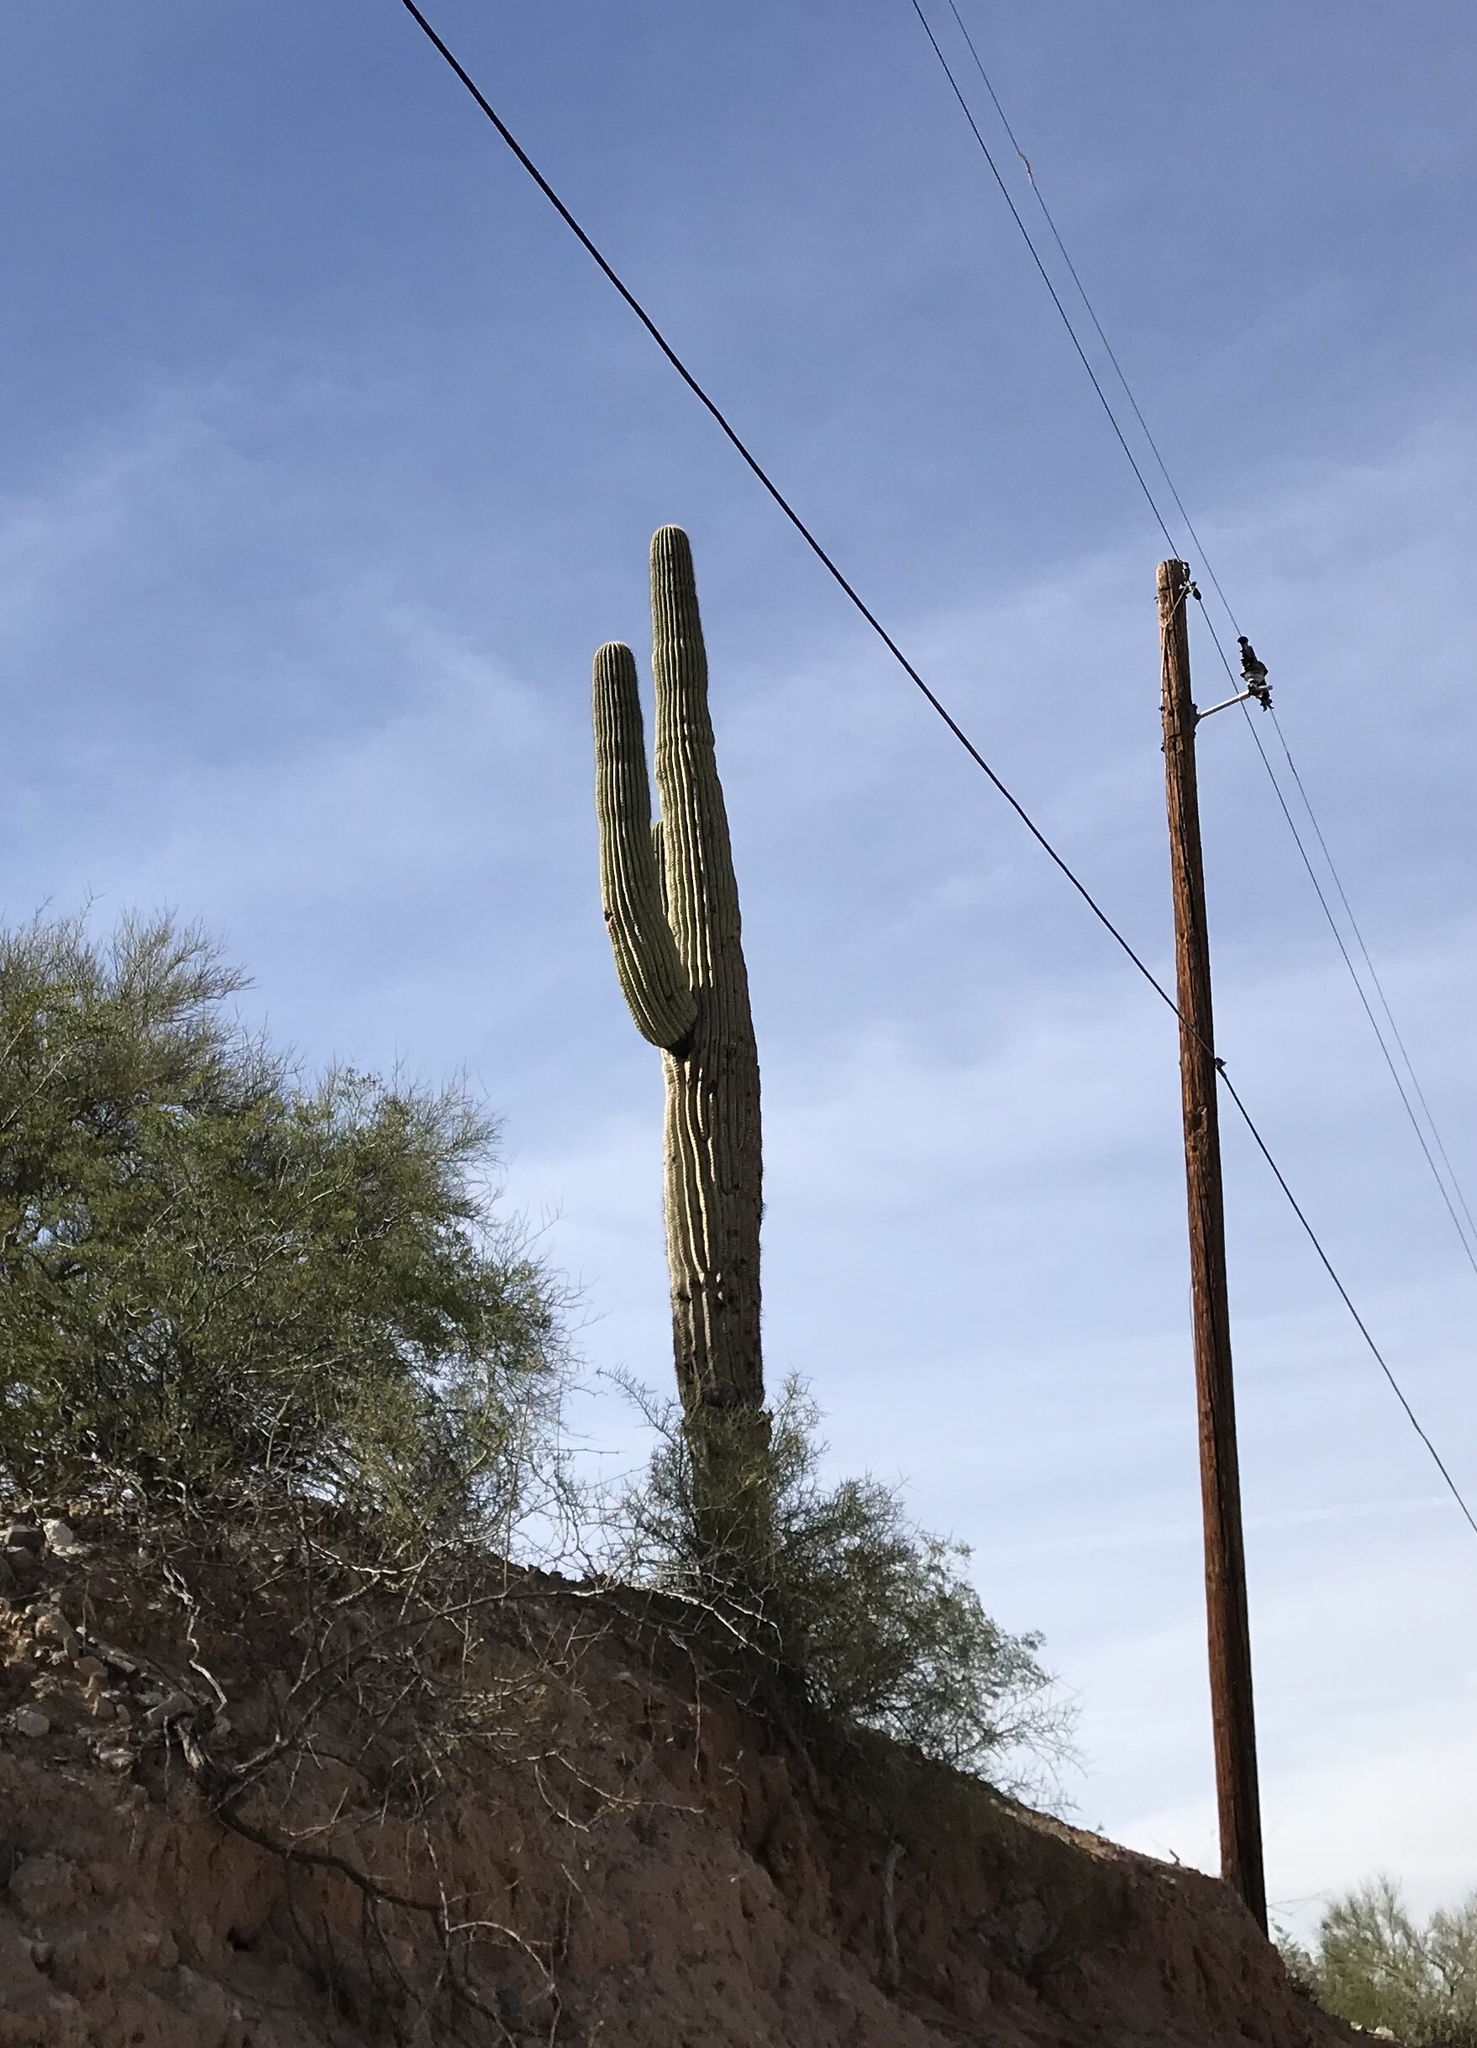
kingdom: Plantae
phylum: Tracheophyta
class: Magnoliopsida
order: Caryophyllales
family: Cactaceae
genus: Carnegiea
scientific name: Carnegiea gigantea
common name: Saguaro
